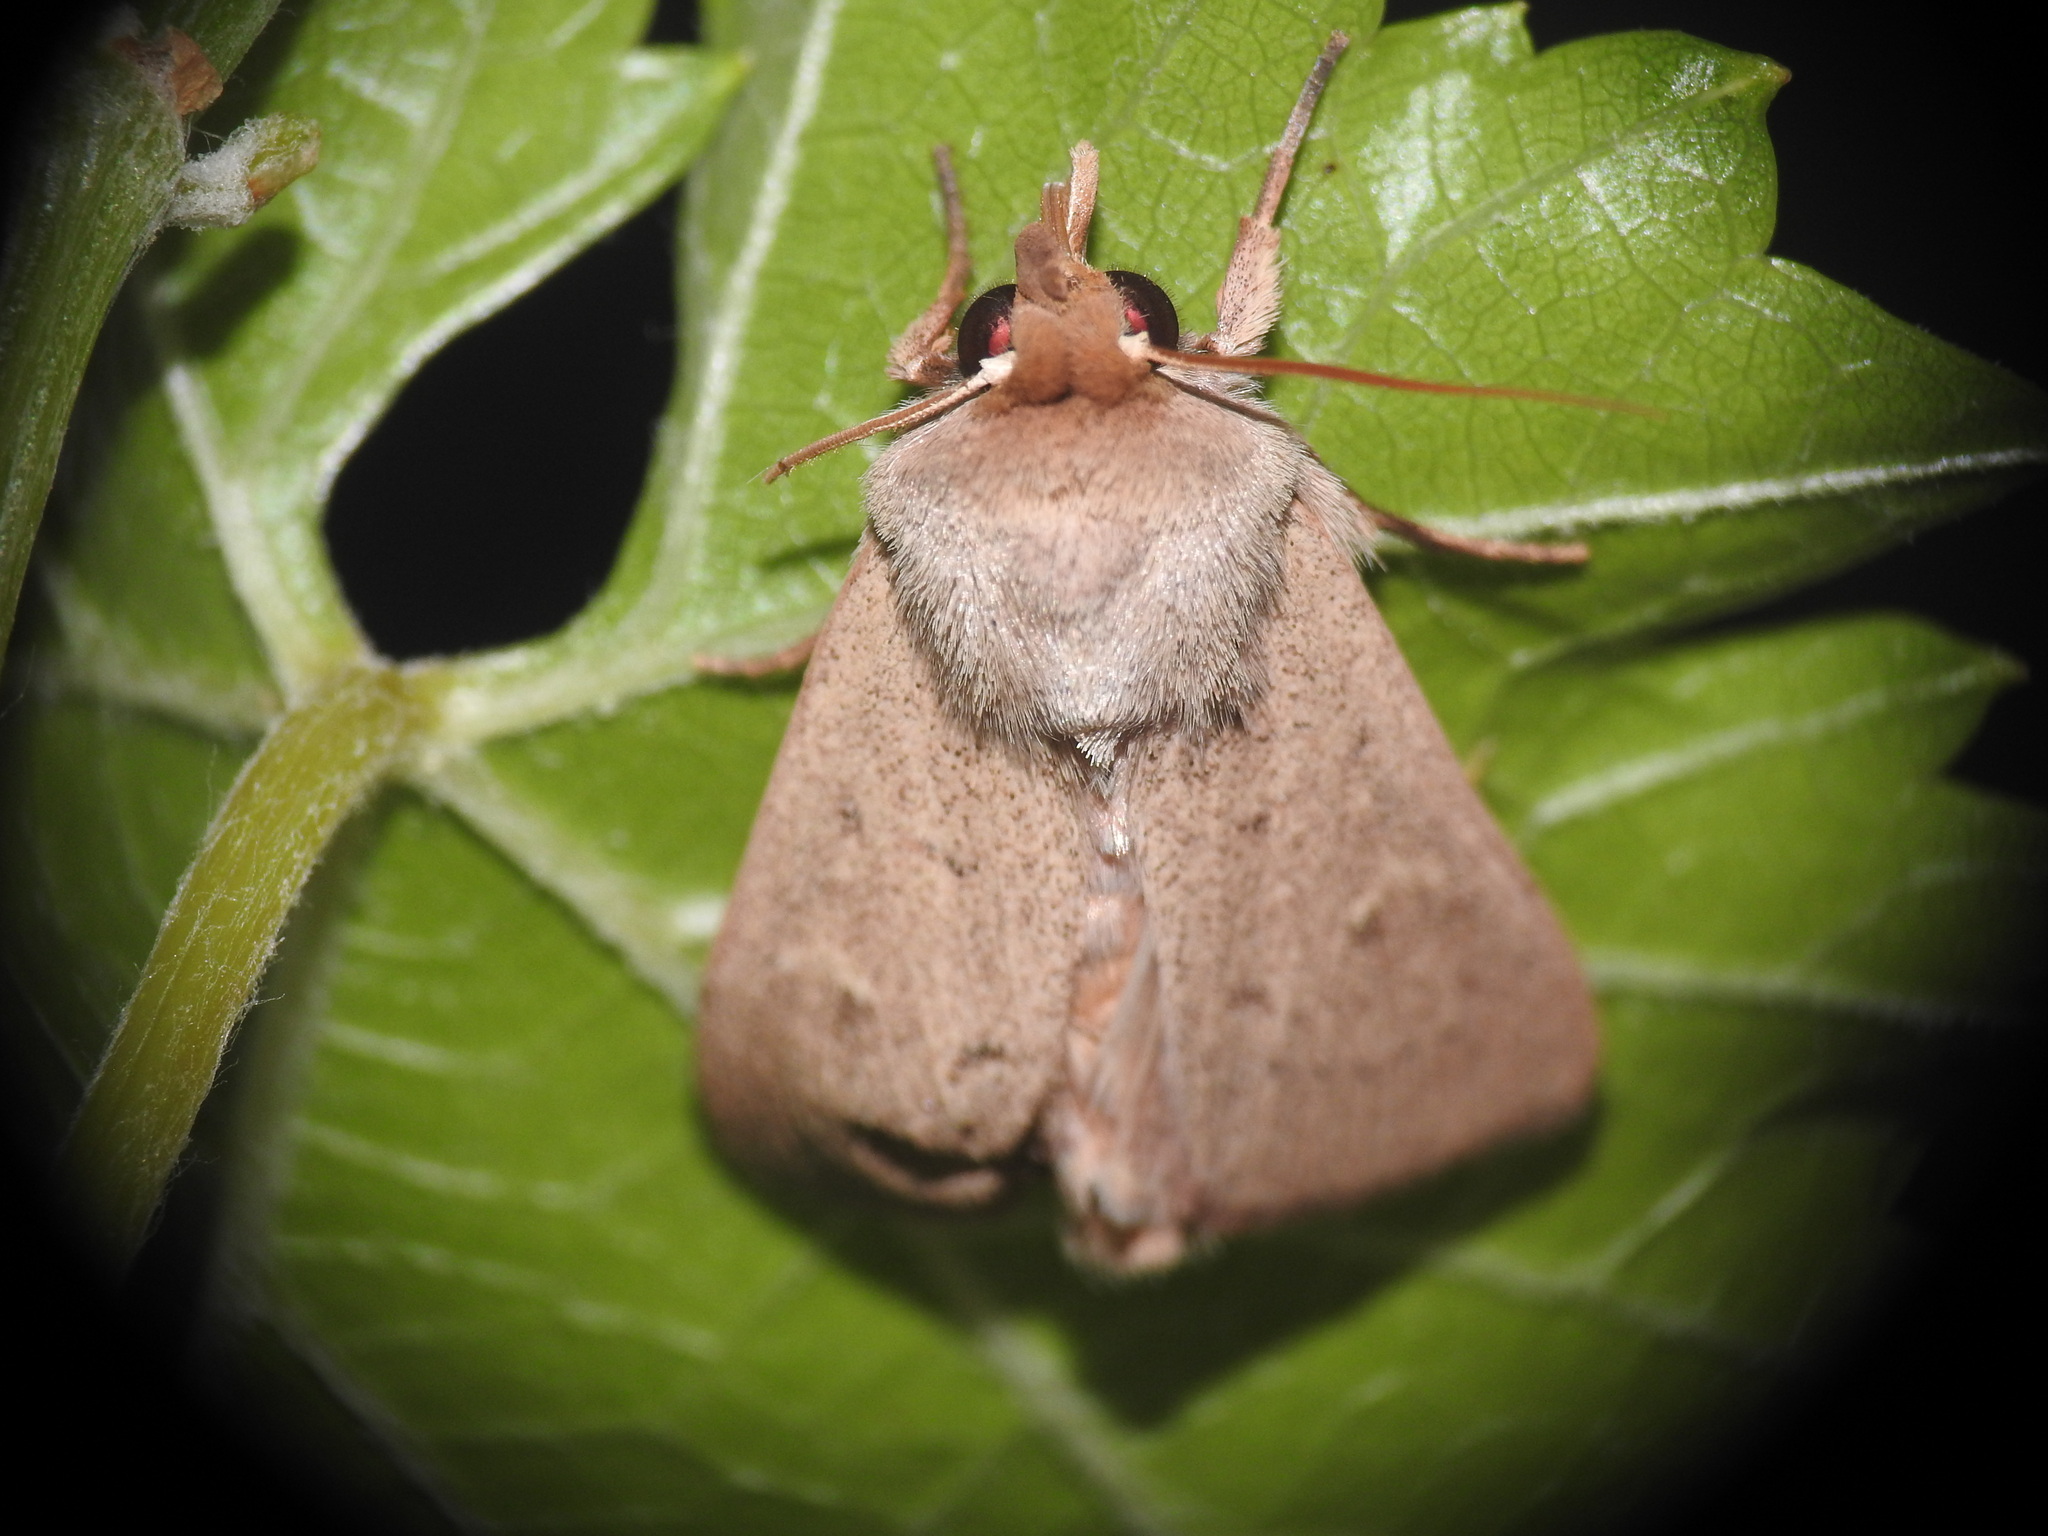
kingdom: Animalia
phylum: Arthropoda
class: Insecta
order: Lepidoptera
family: Noctuidae
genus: Mythimna
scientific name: Mythimna ferrago
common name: Clay
